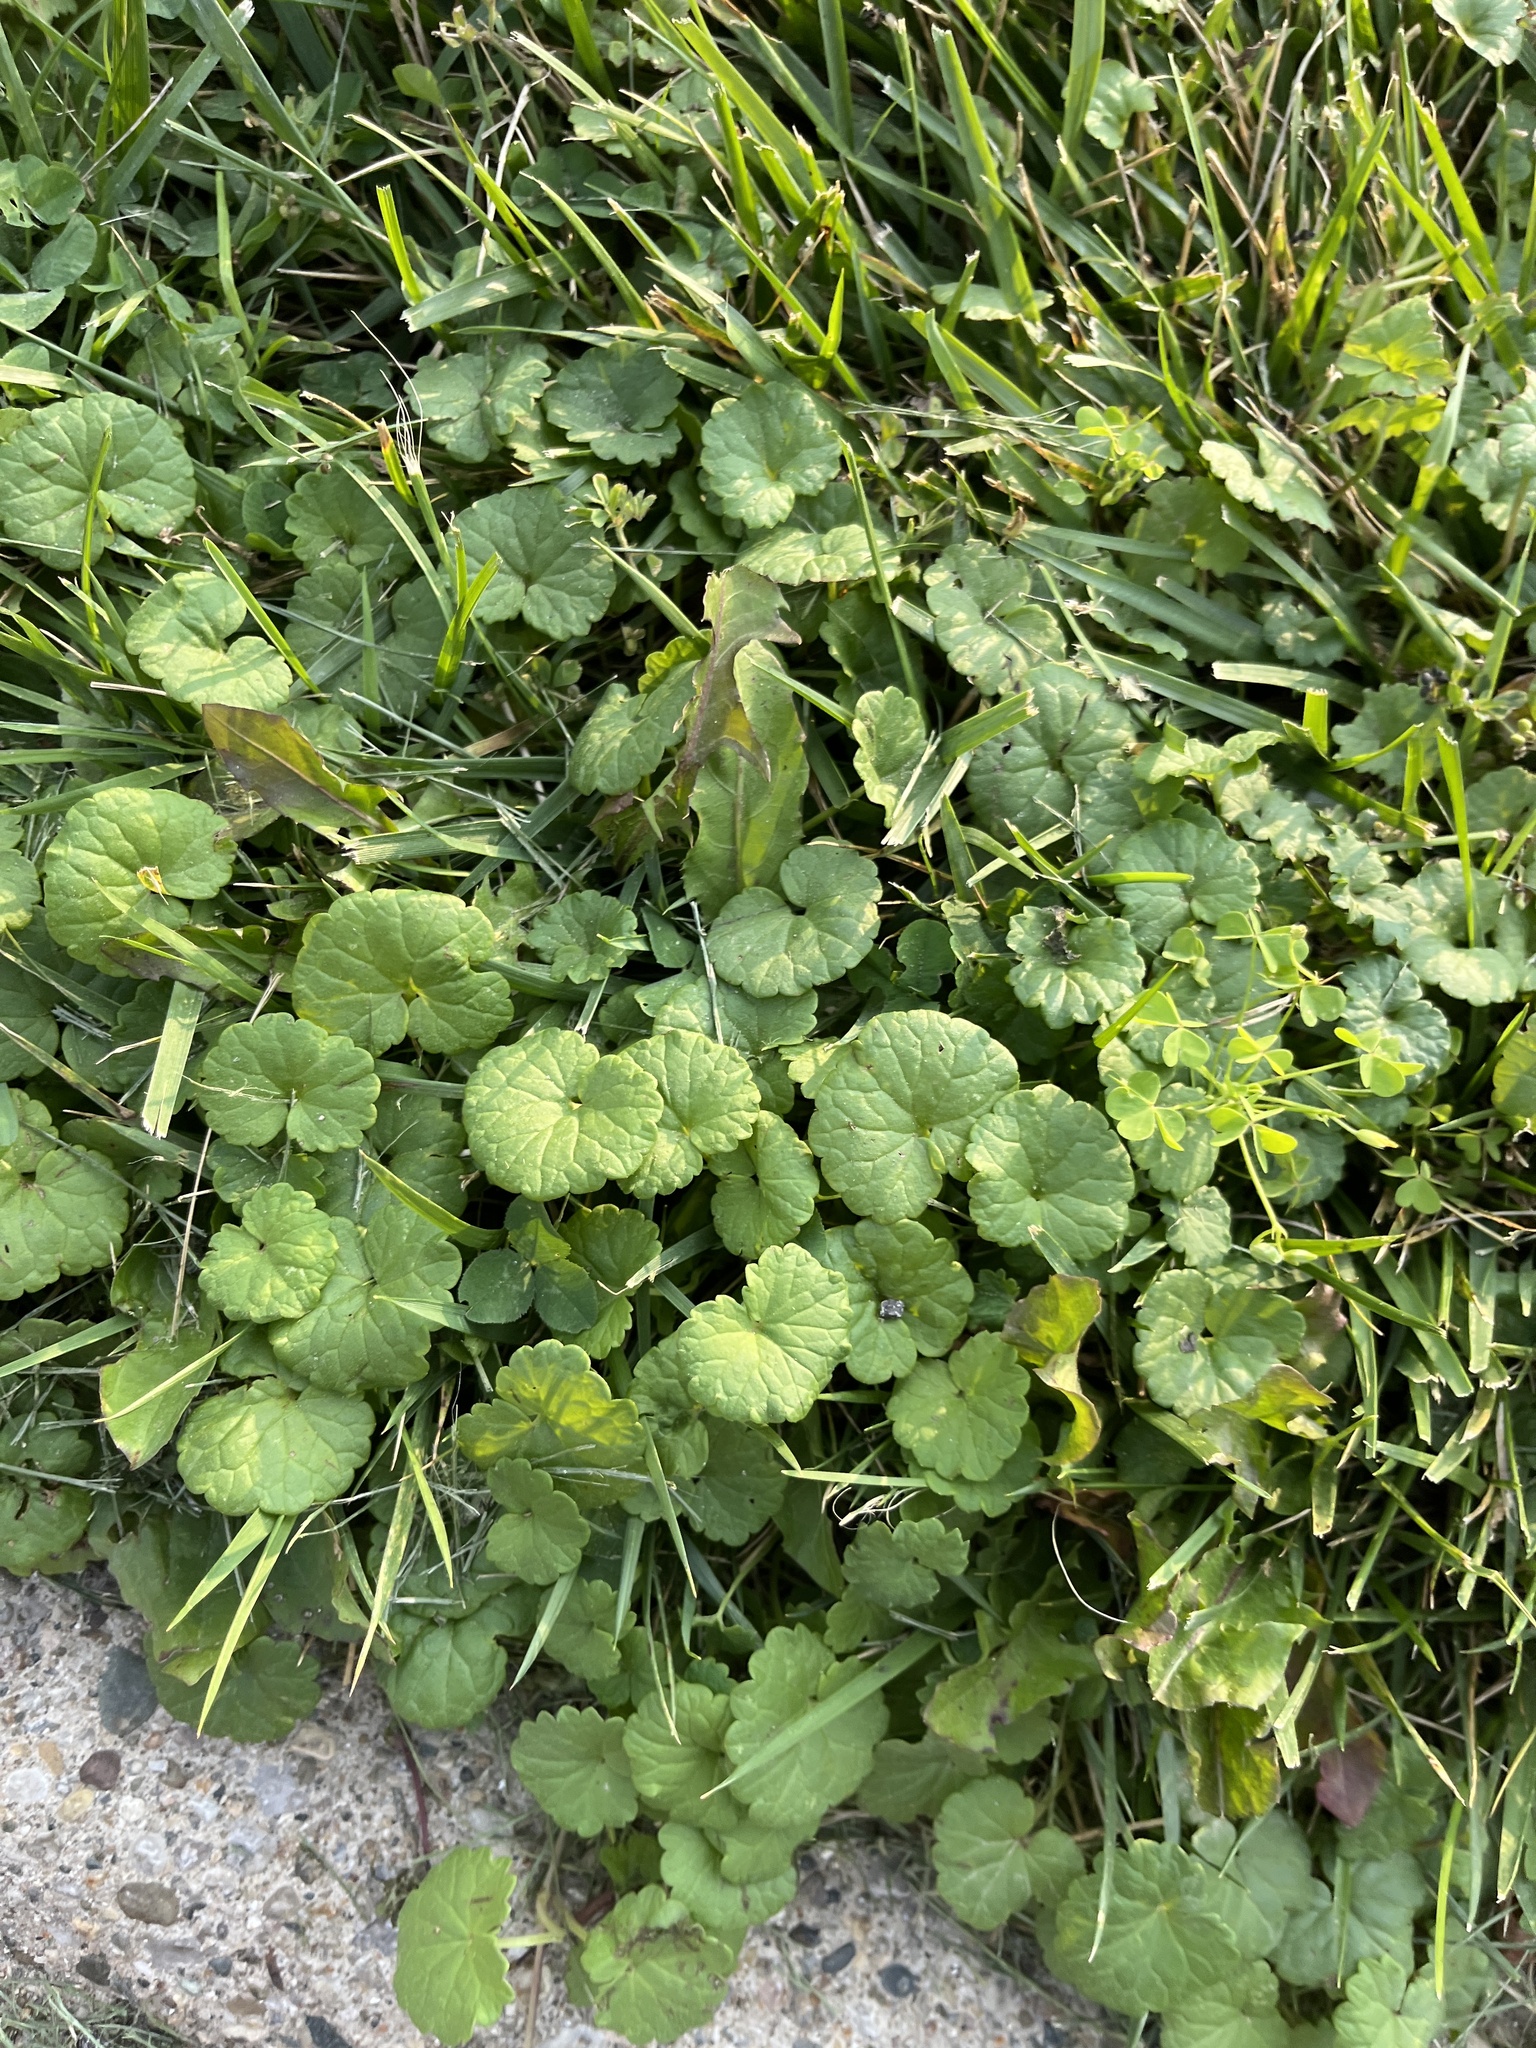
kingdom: Plantae
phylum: Tracheophyta
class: Magnoliopsida
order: Lamiales
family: Lamiaceae
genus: Glechoma
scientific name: Glechoma hederacea
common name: Ground ivy
